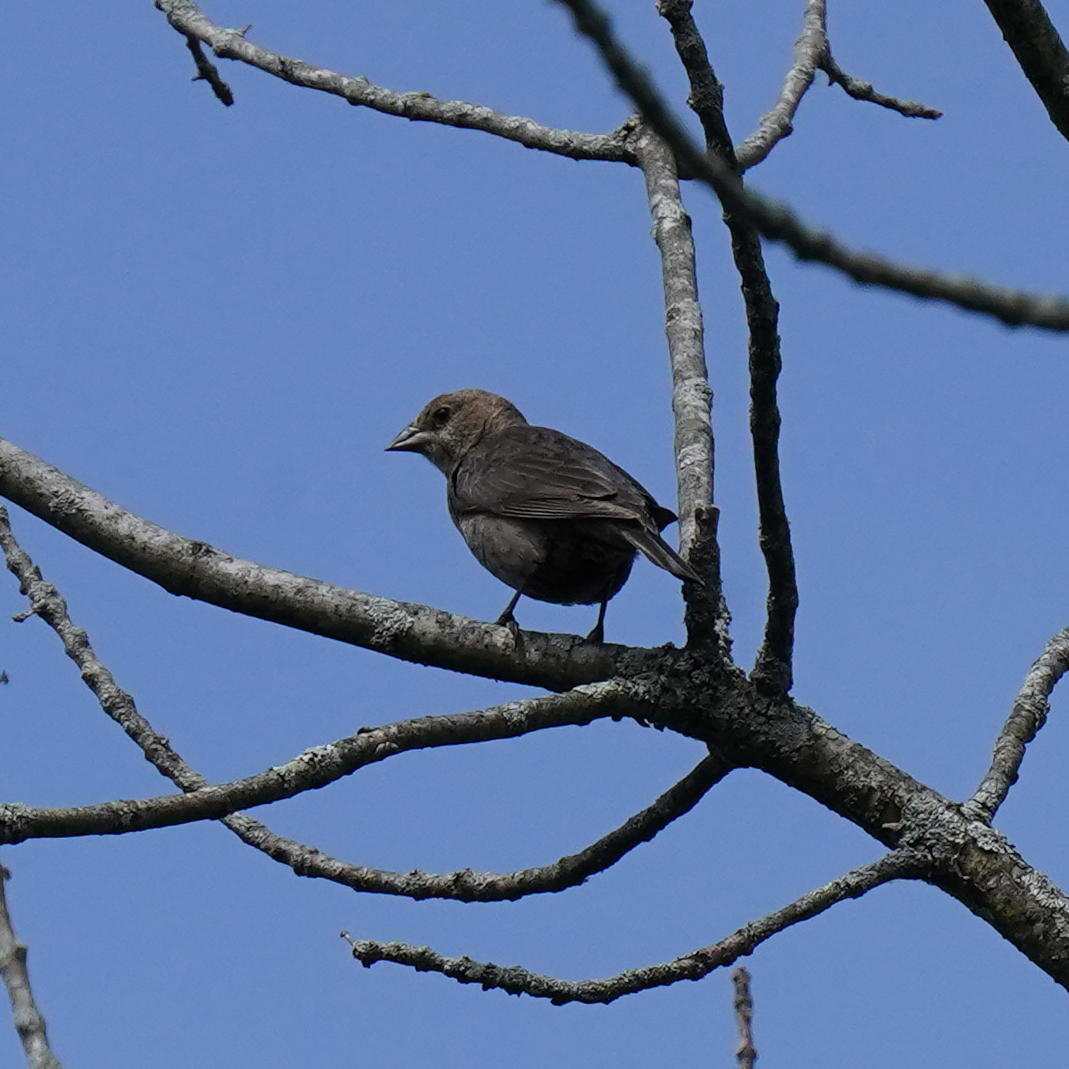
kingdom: Animalia
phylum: Chordata
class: Aves
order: Passeriformes
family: Icteridae
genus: Molothrus
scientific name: Molothrus ater
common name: Brown-headed cowbird
